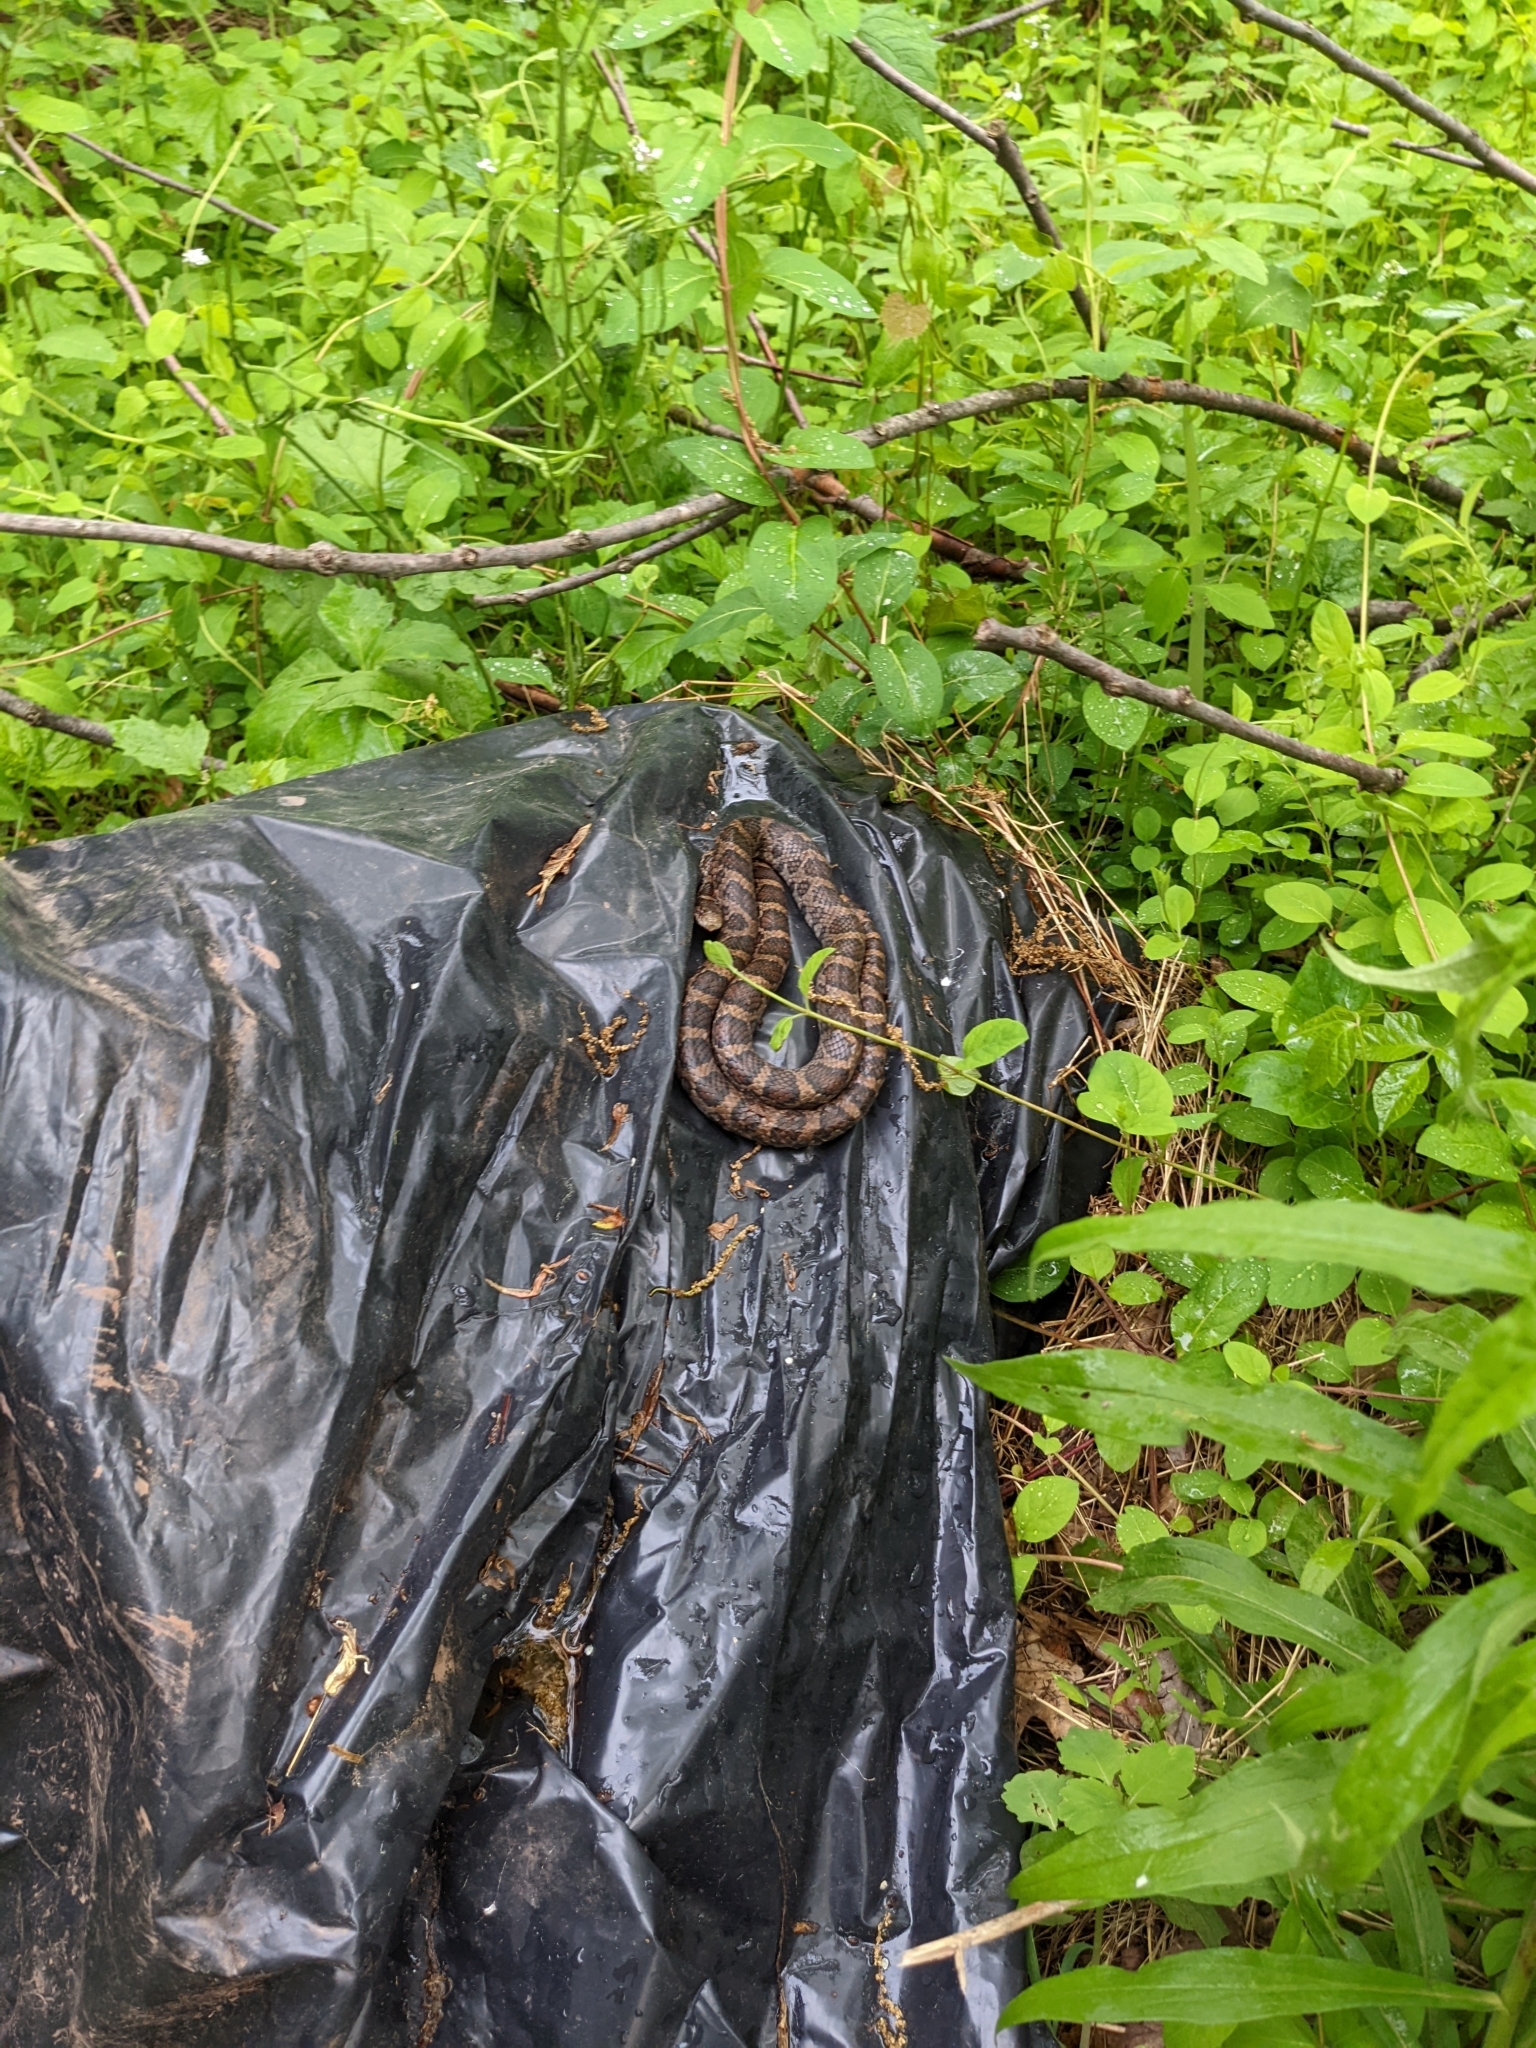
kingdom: Animalia
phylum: Chordata
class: Squamata
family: Colubridae
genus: Lampropeltis
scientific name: Lampropeltis triangulum
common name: Eastern milksnake
